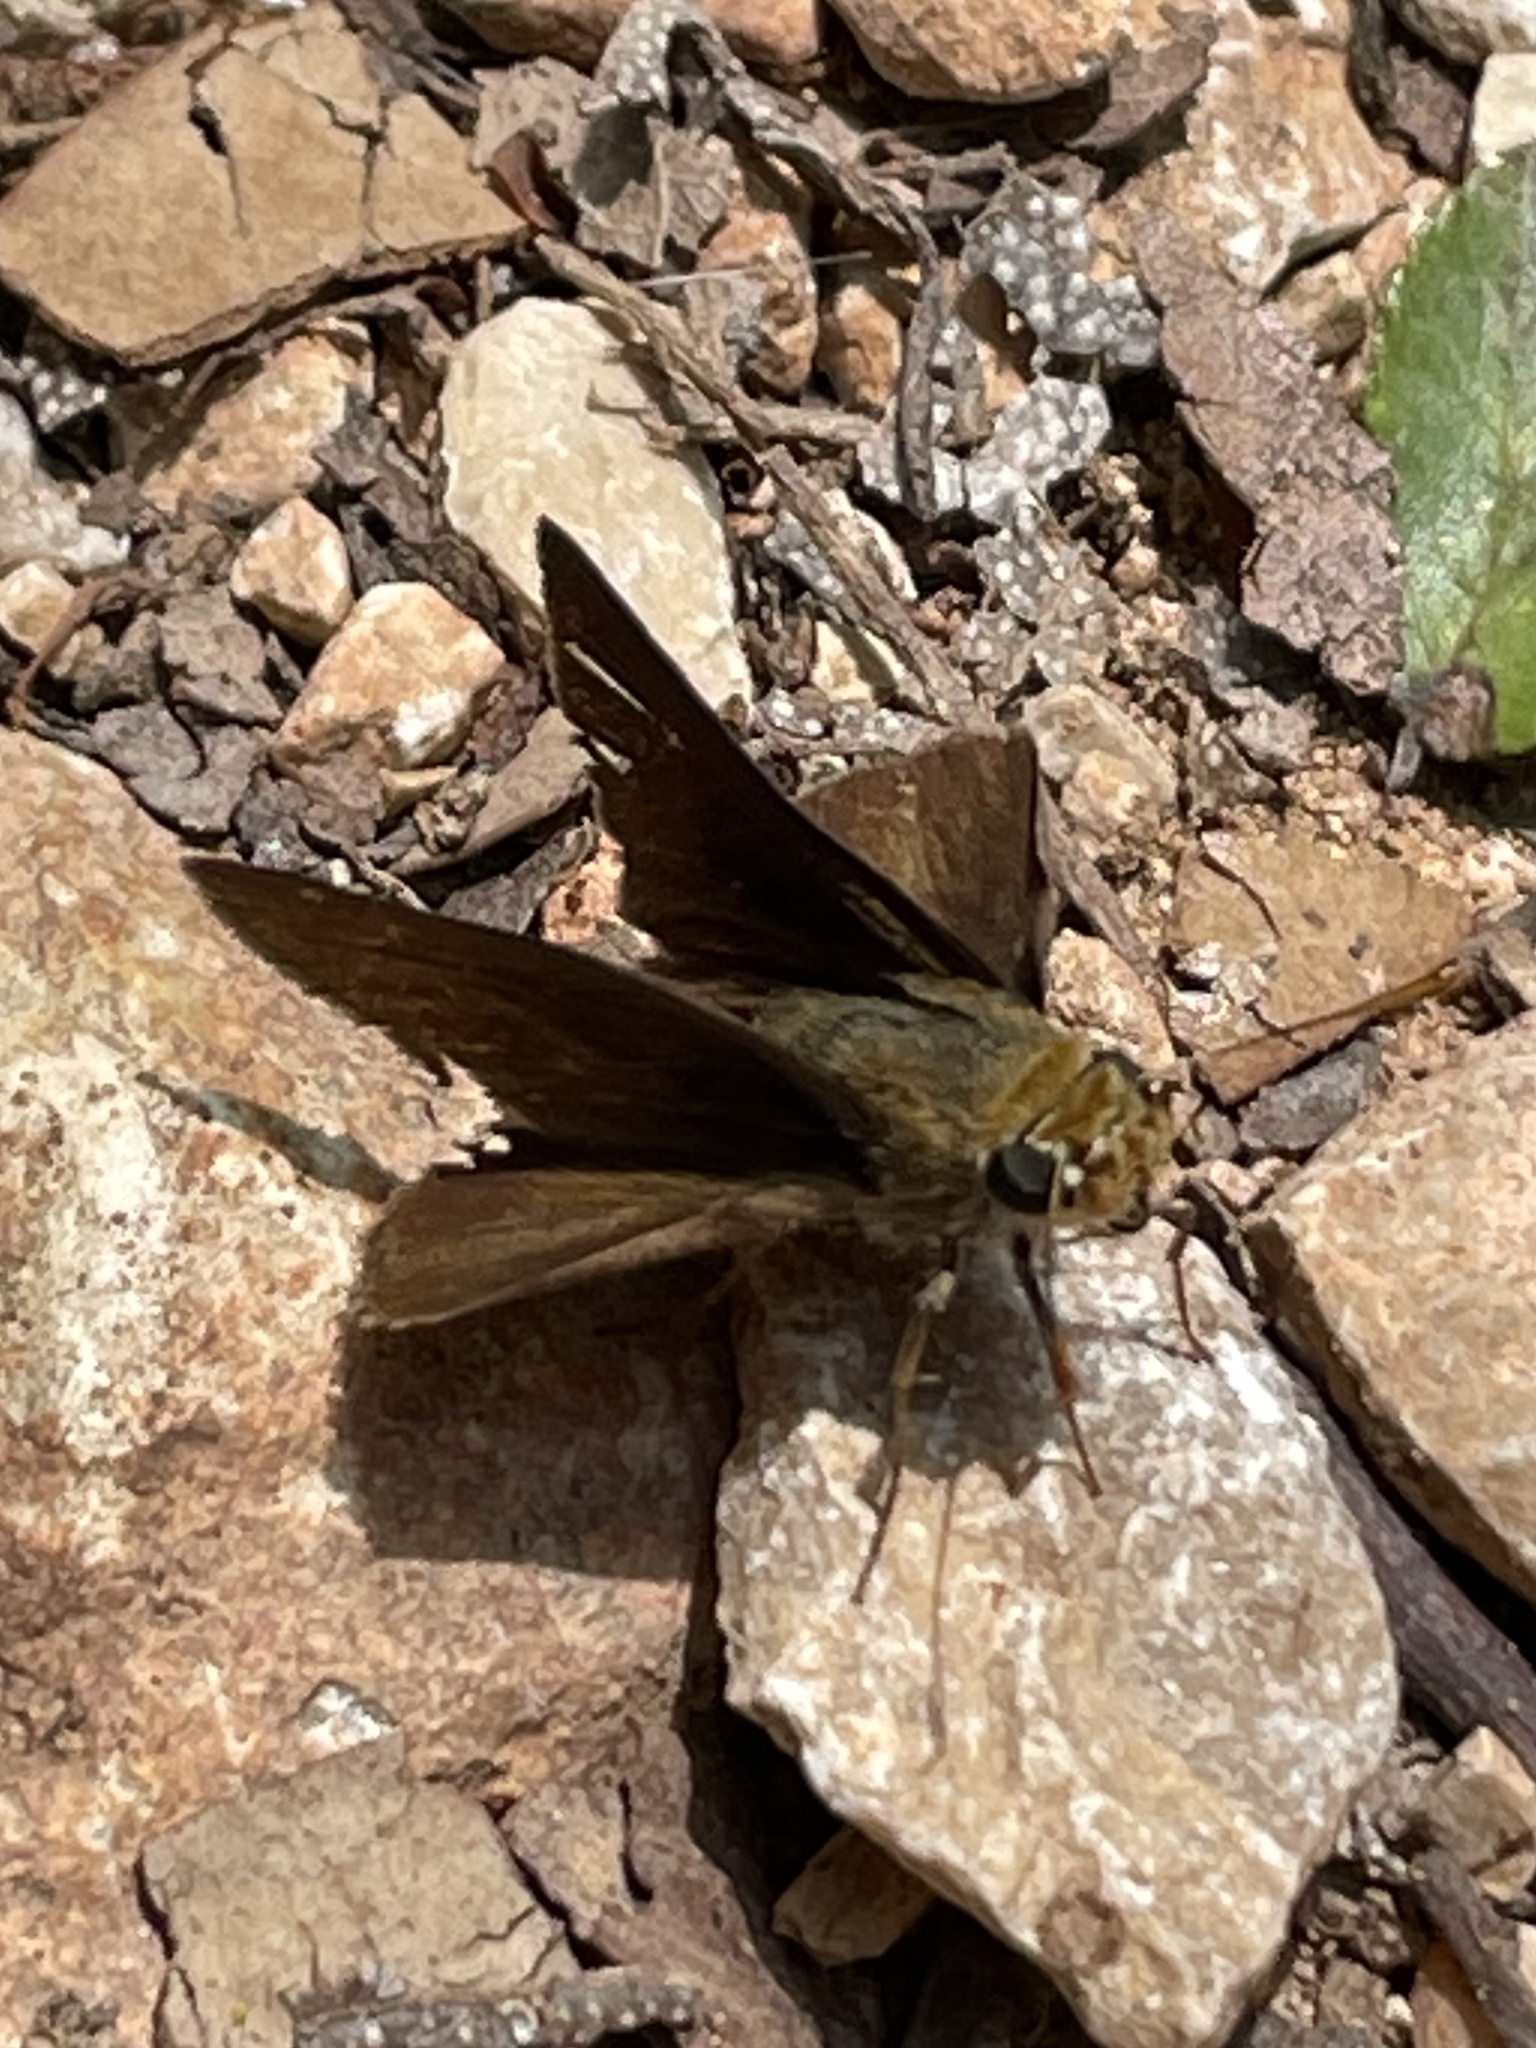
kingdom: Animalia
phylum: Arthropoda
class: Insecta
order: Lepidoptera
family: Hesperiidae
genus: Euphyes
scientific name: Euphyes vestris
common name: Dun skipper
